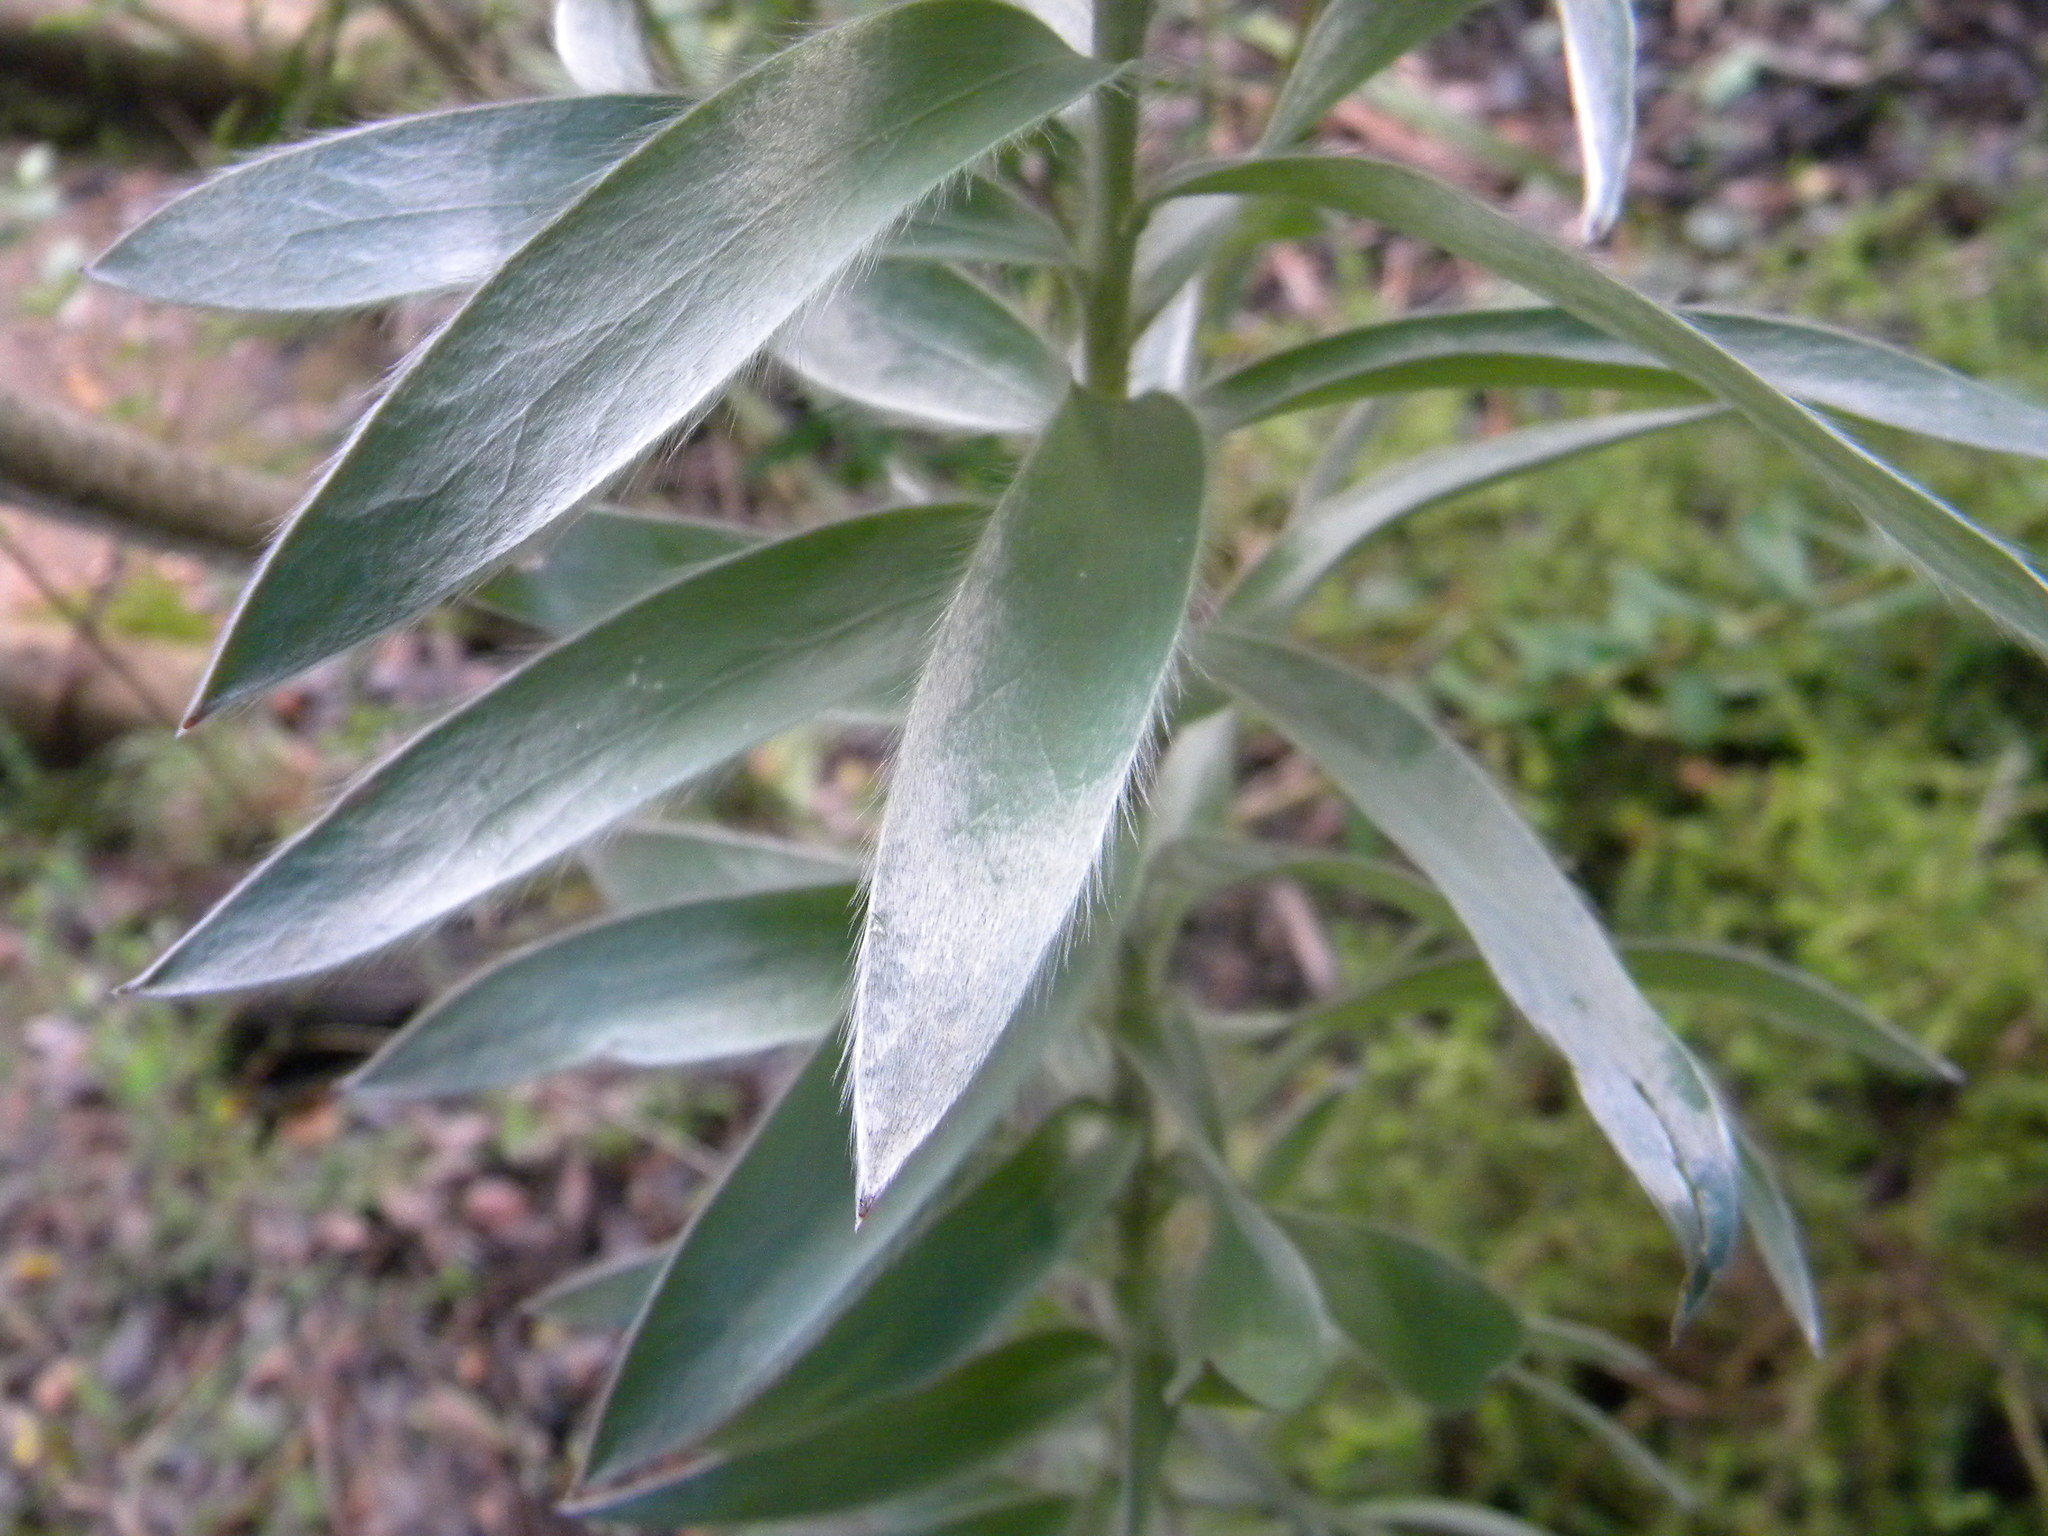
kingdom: Plantae
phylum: Tracheophyta
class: Magnoliopsida
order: Proteales
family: Proteaceae
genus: Leucadendron
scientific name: Leucadendron argenteum
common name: Cape silver tree
